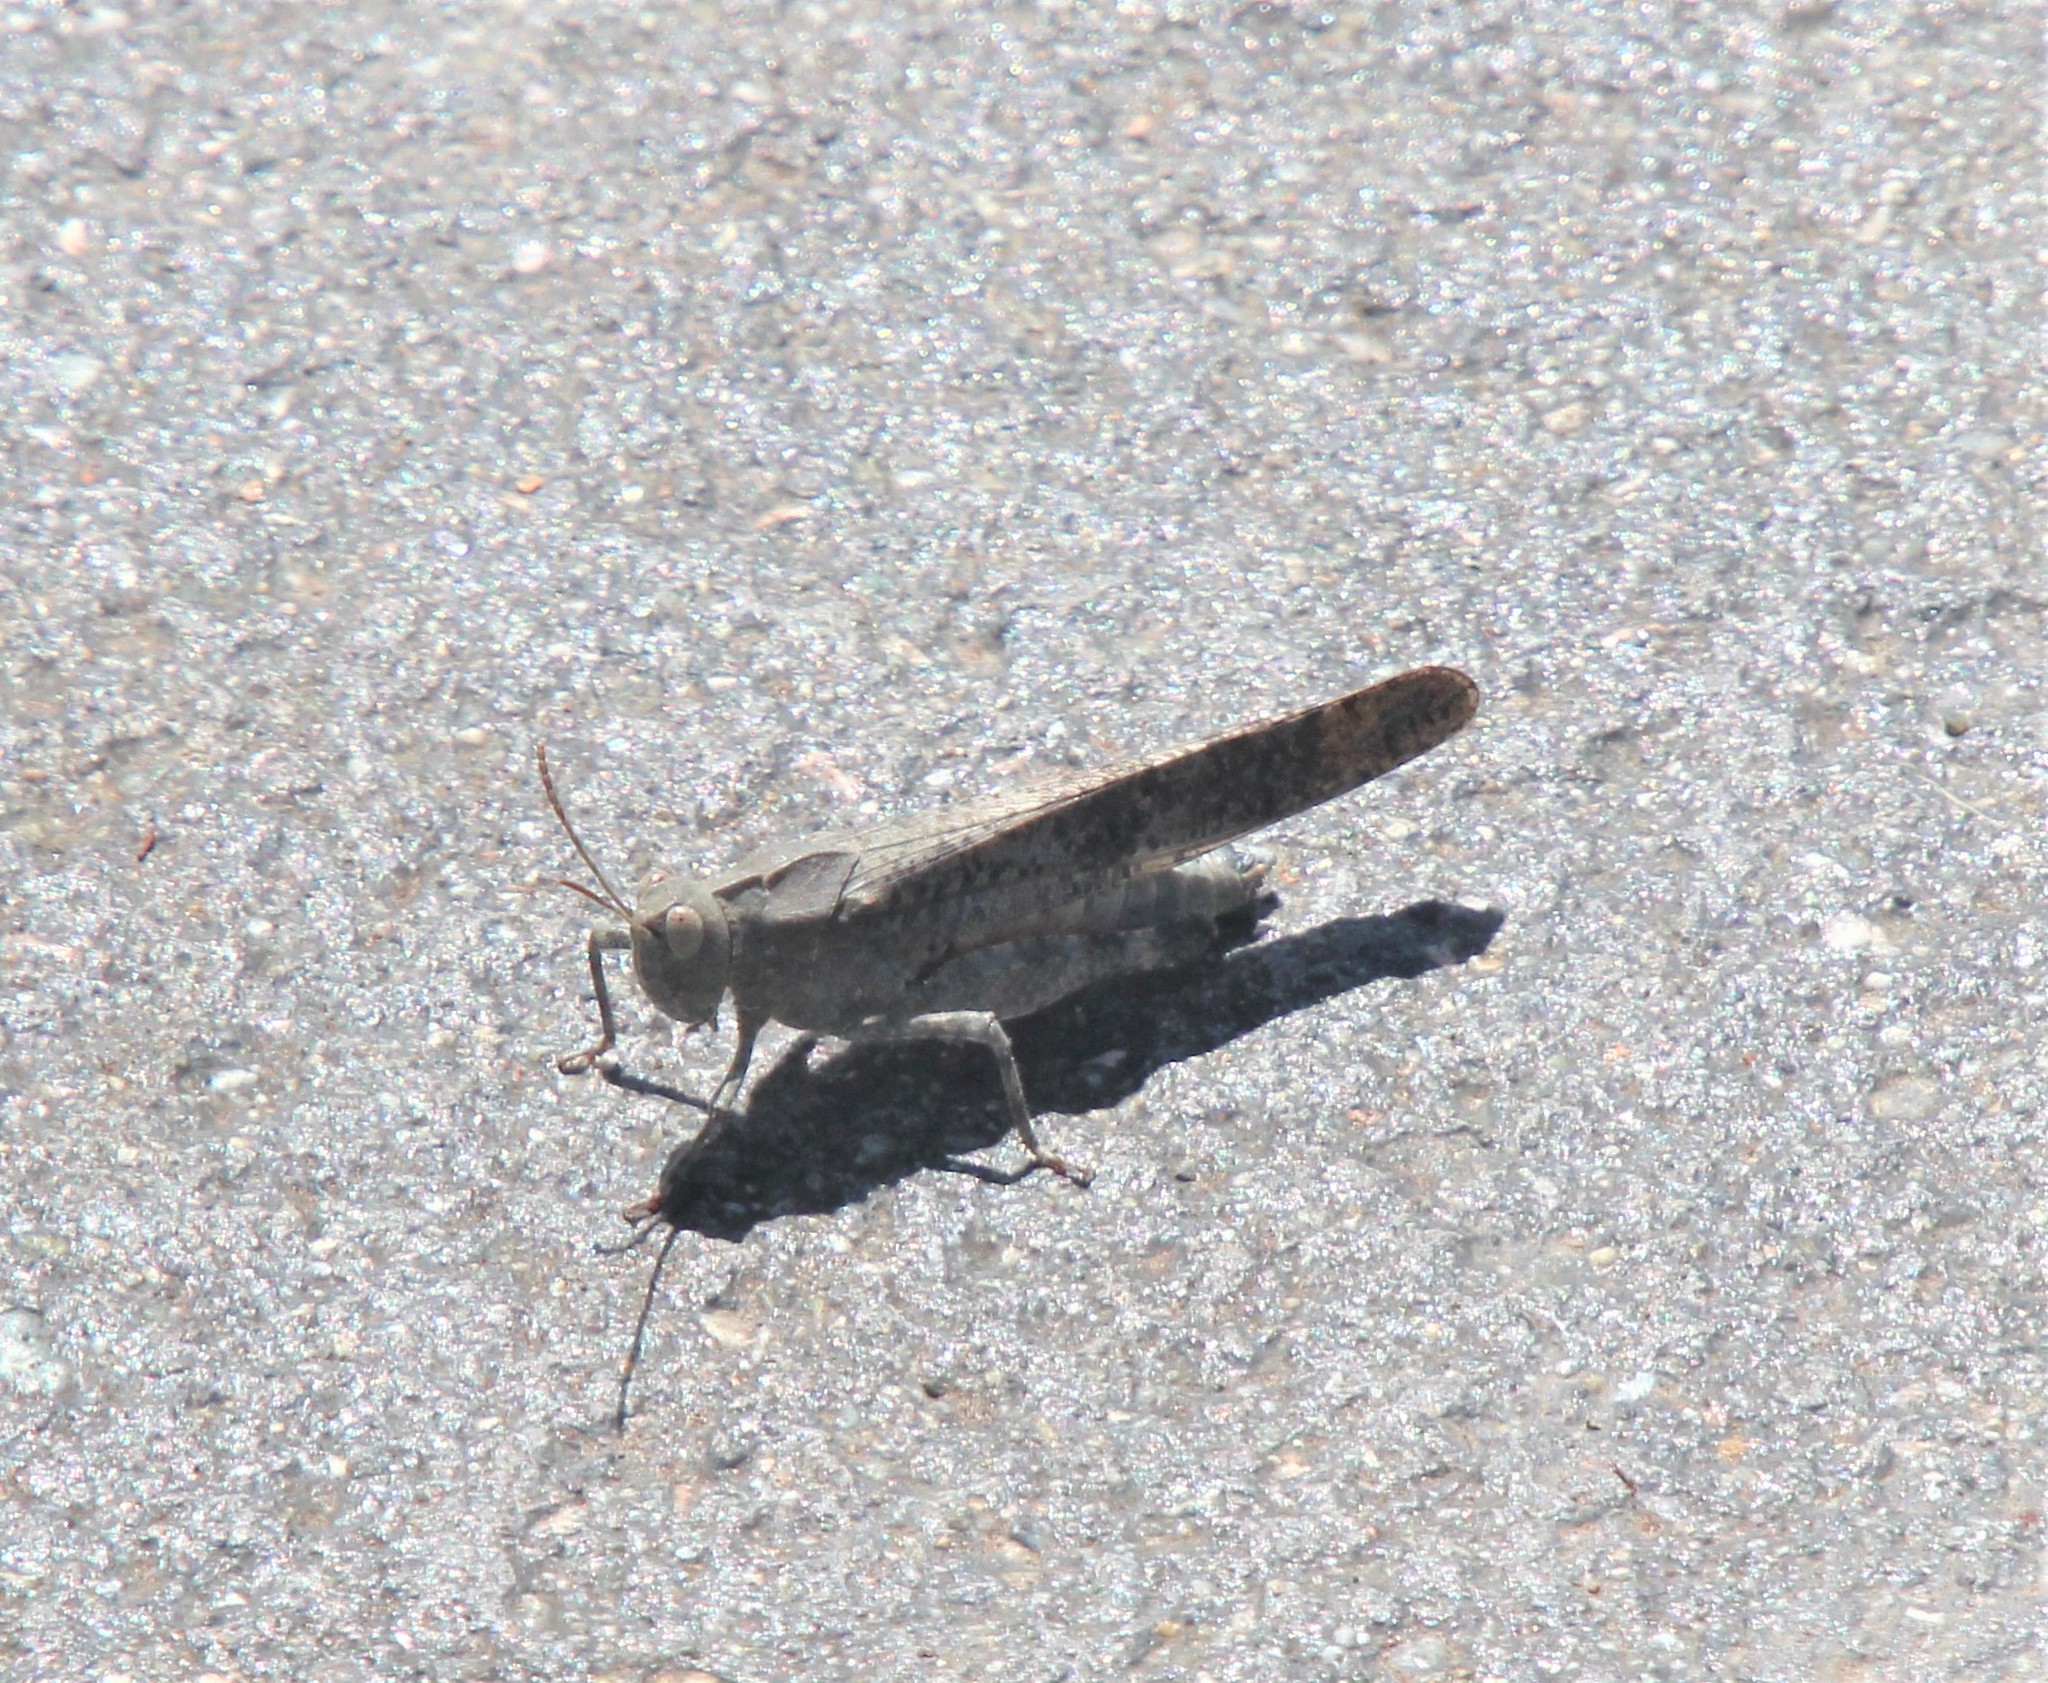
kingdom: Animalia
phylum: Arthropoda
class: Insecta
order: Orthoptera
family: Acrididae
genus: Dissosteira
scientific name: Dissosteira carolina
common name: Carolina grasshopper
